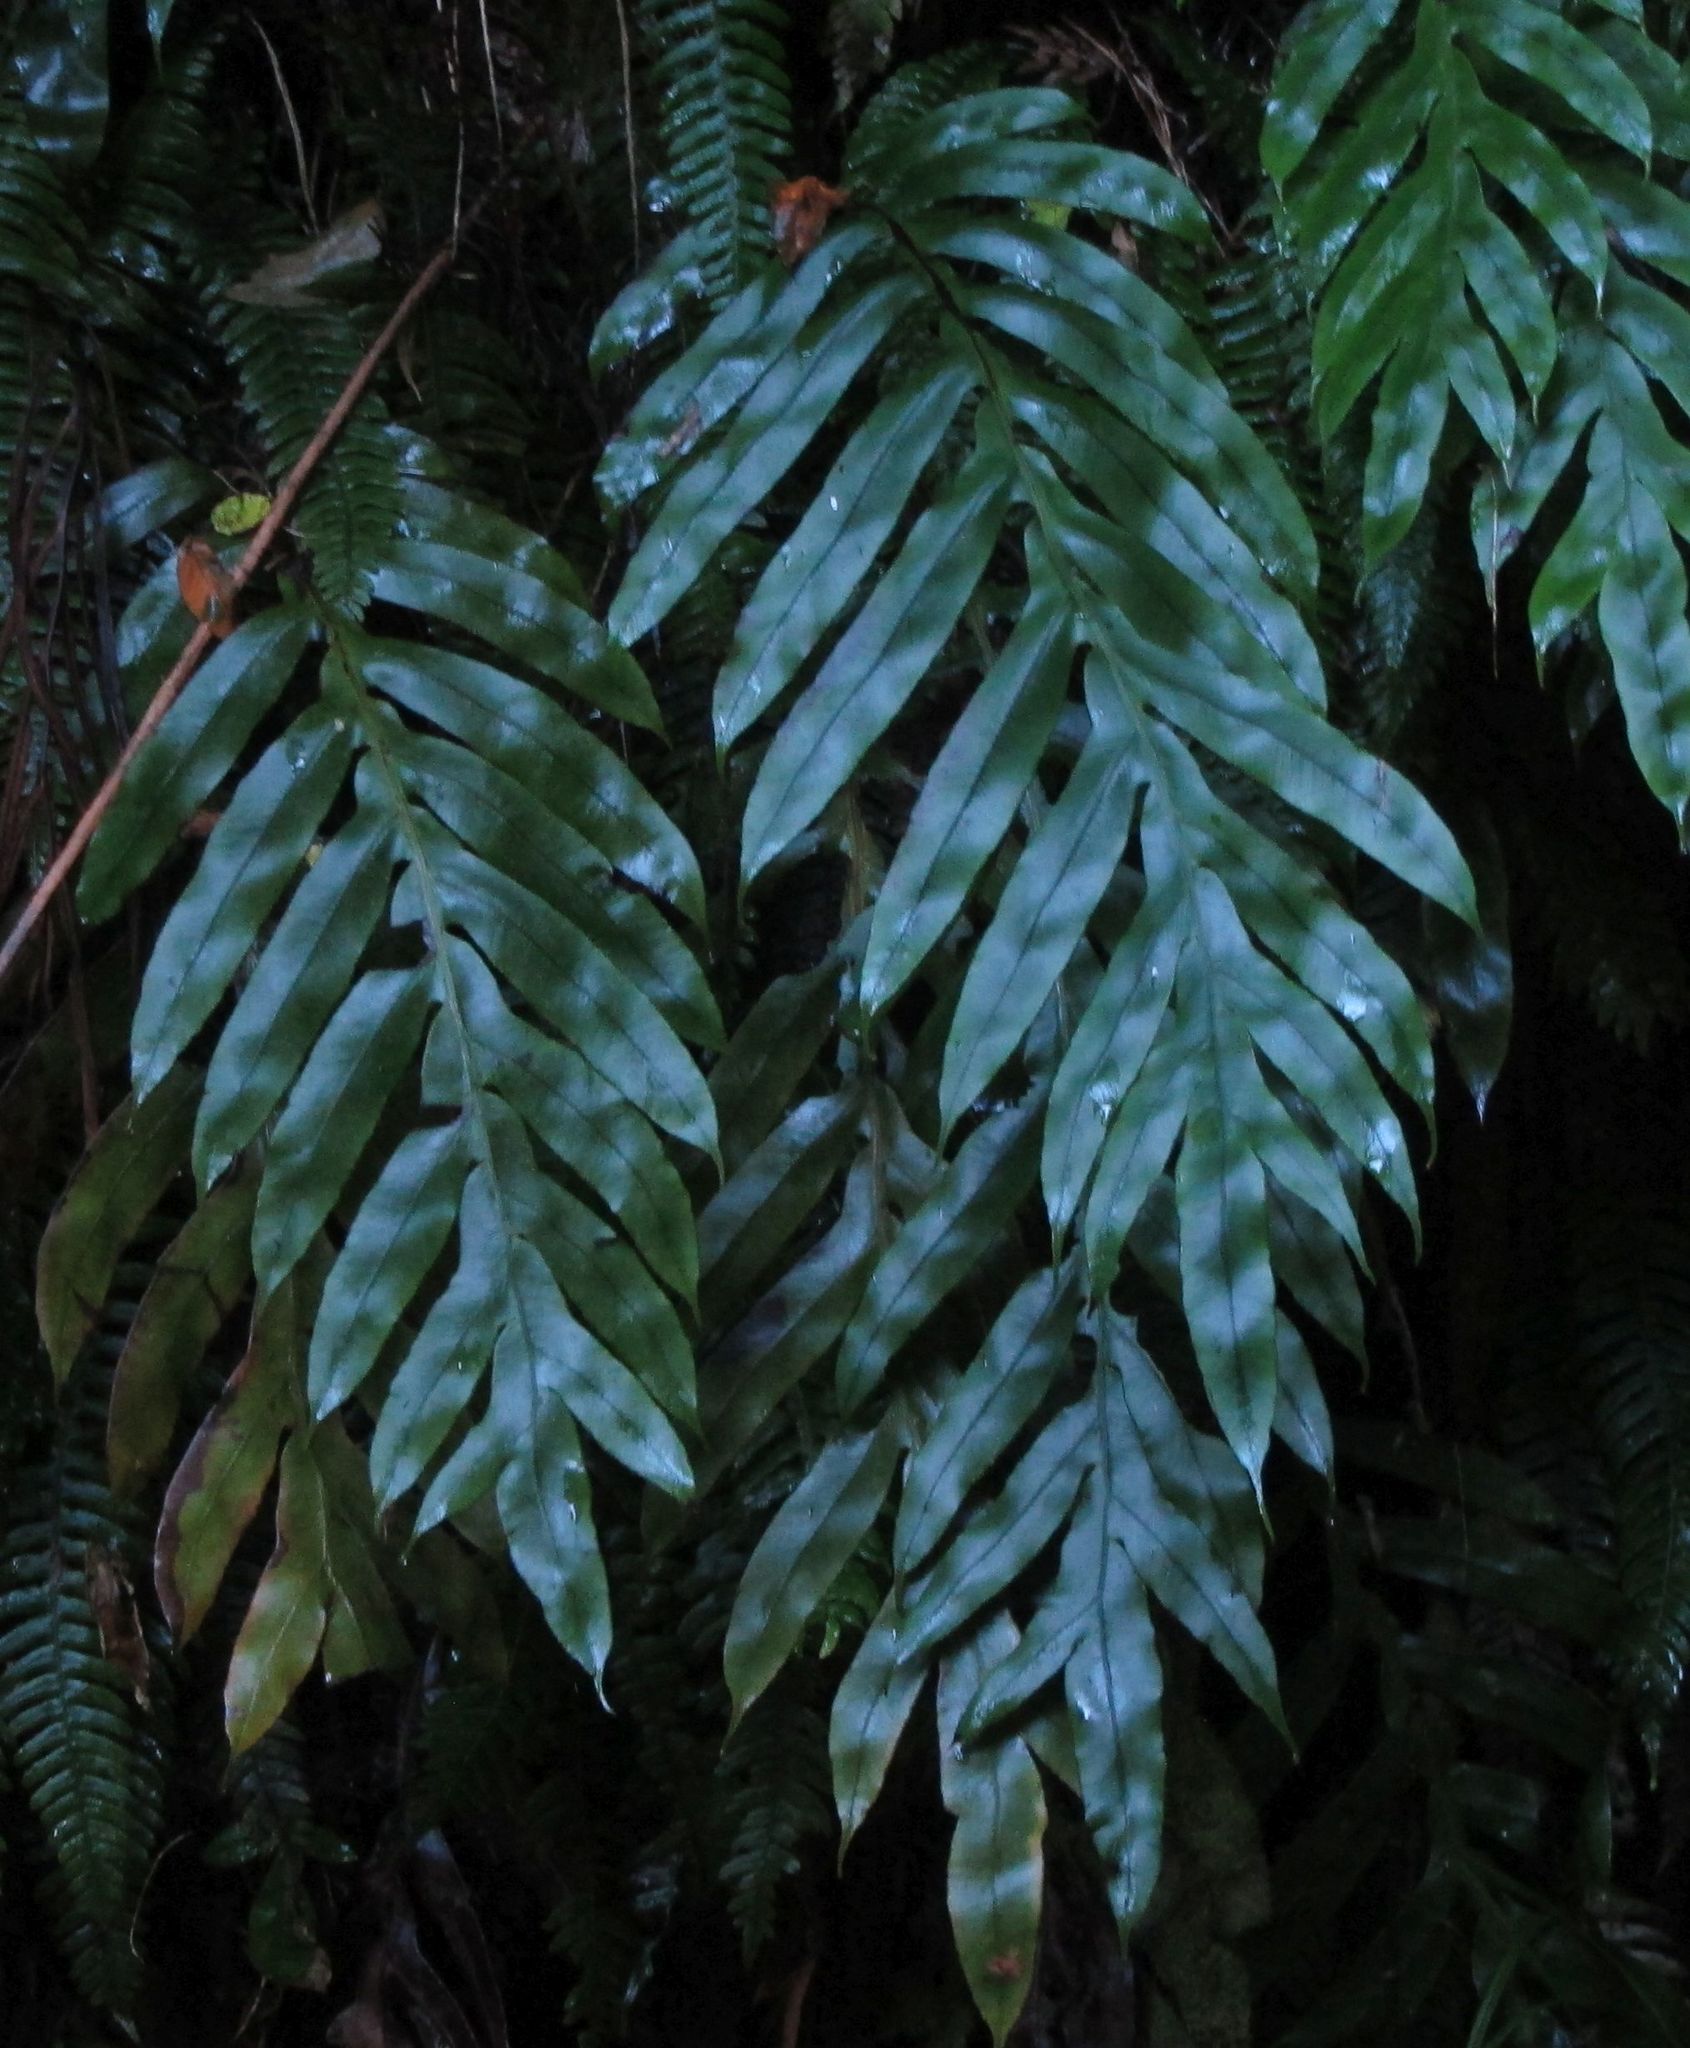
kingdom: Plantae
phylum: Tracheophyta
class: Polypodiopsida
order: Polypodiales
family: Blechnaceae
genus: Austroblechnum
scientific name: Austroblechnum colensoi
